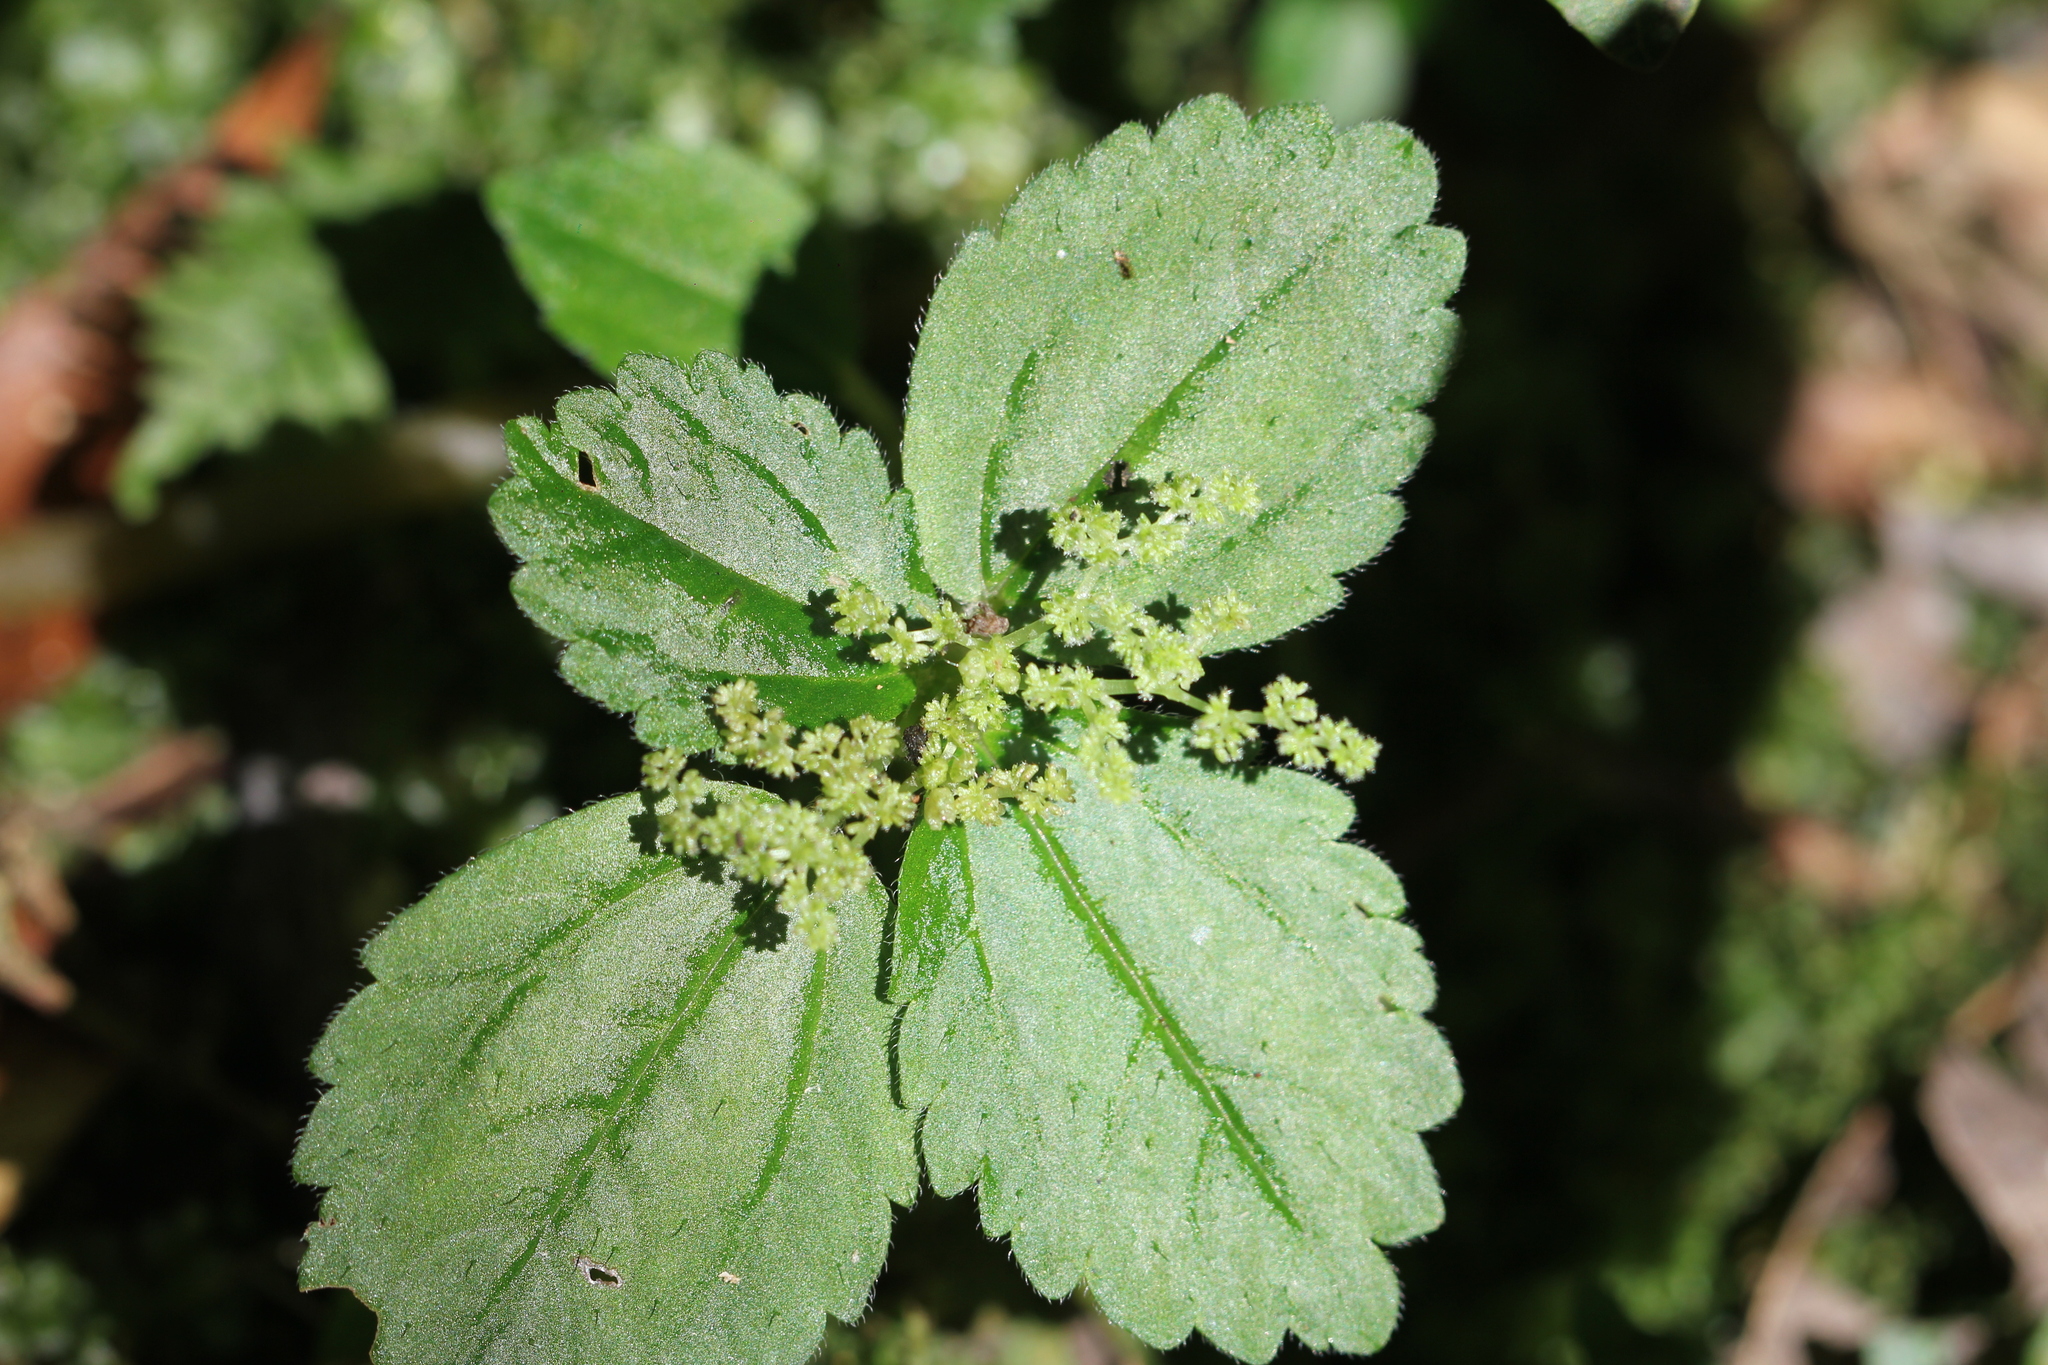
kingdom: Plantae
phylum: Tracheophyta
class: Magnoliopsida
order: Rosales
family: Urticaceae
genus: Pilea
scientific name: Pilea pubescens
